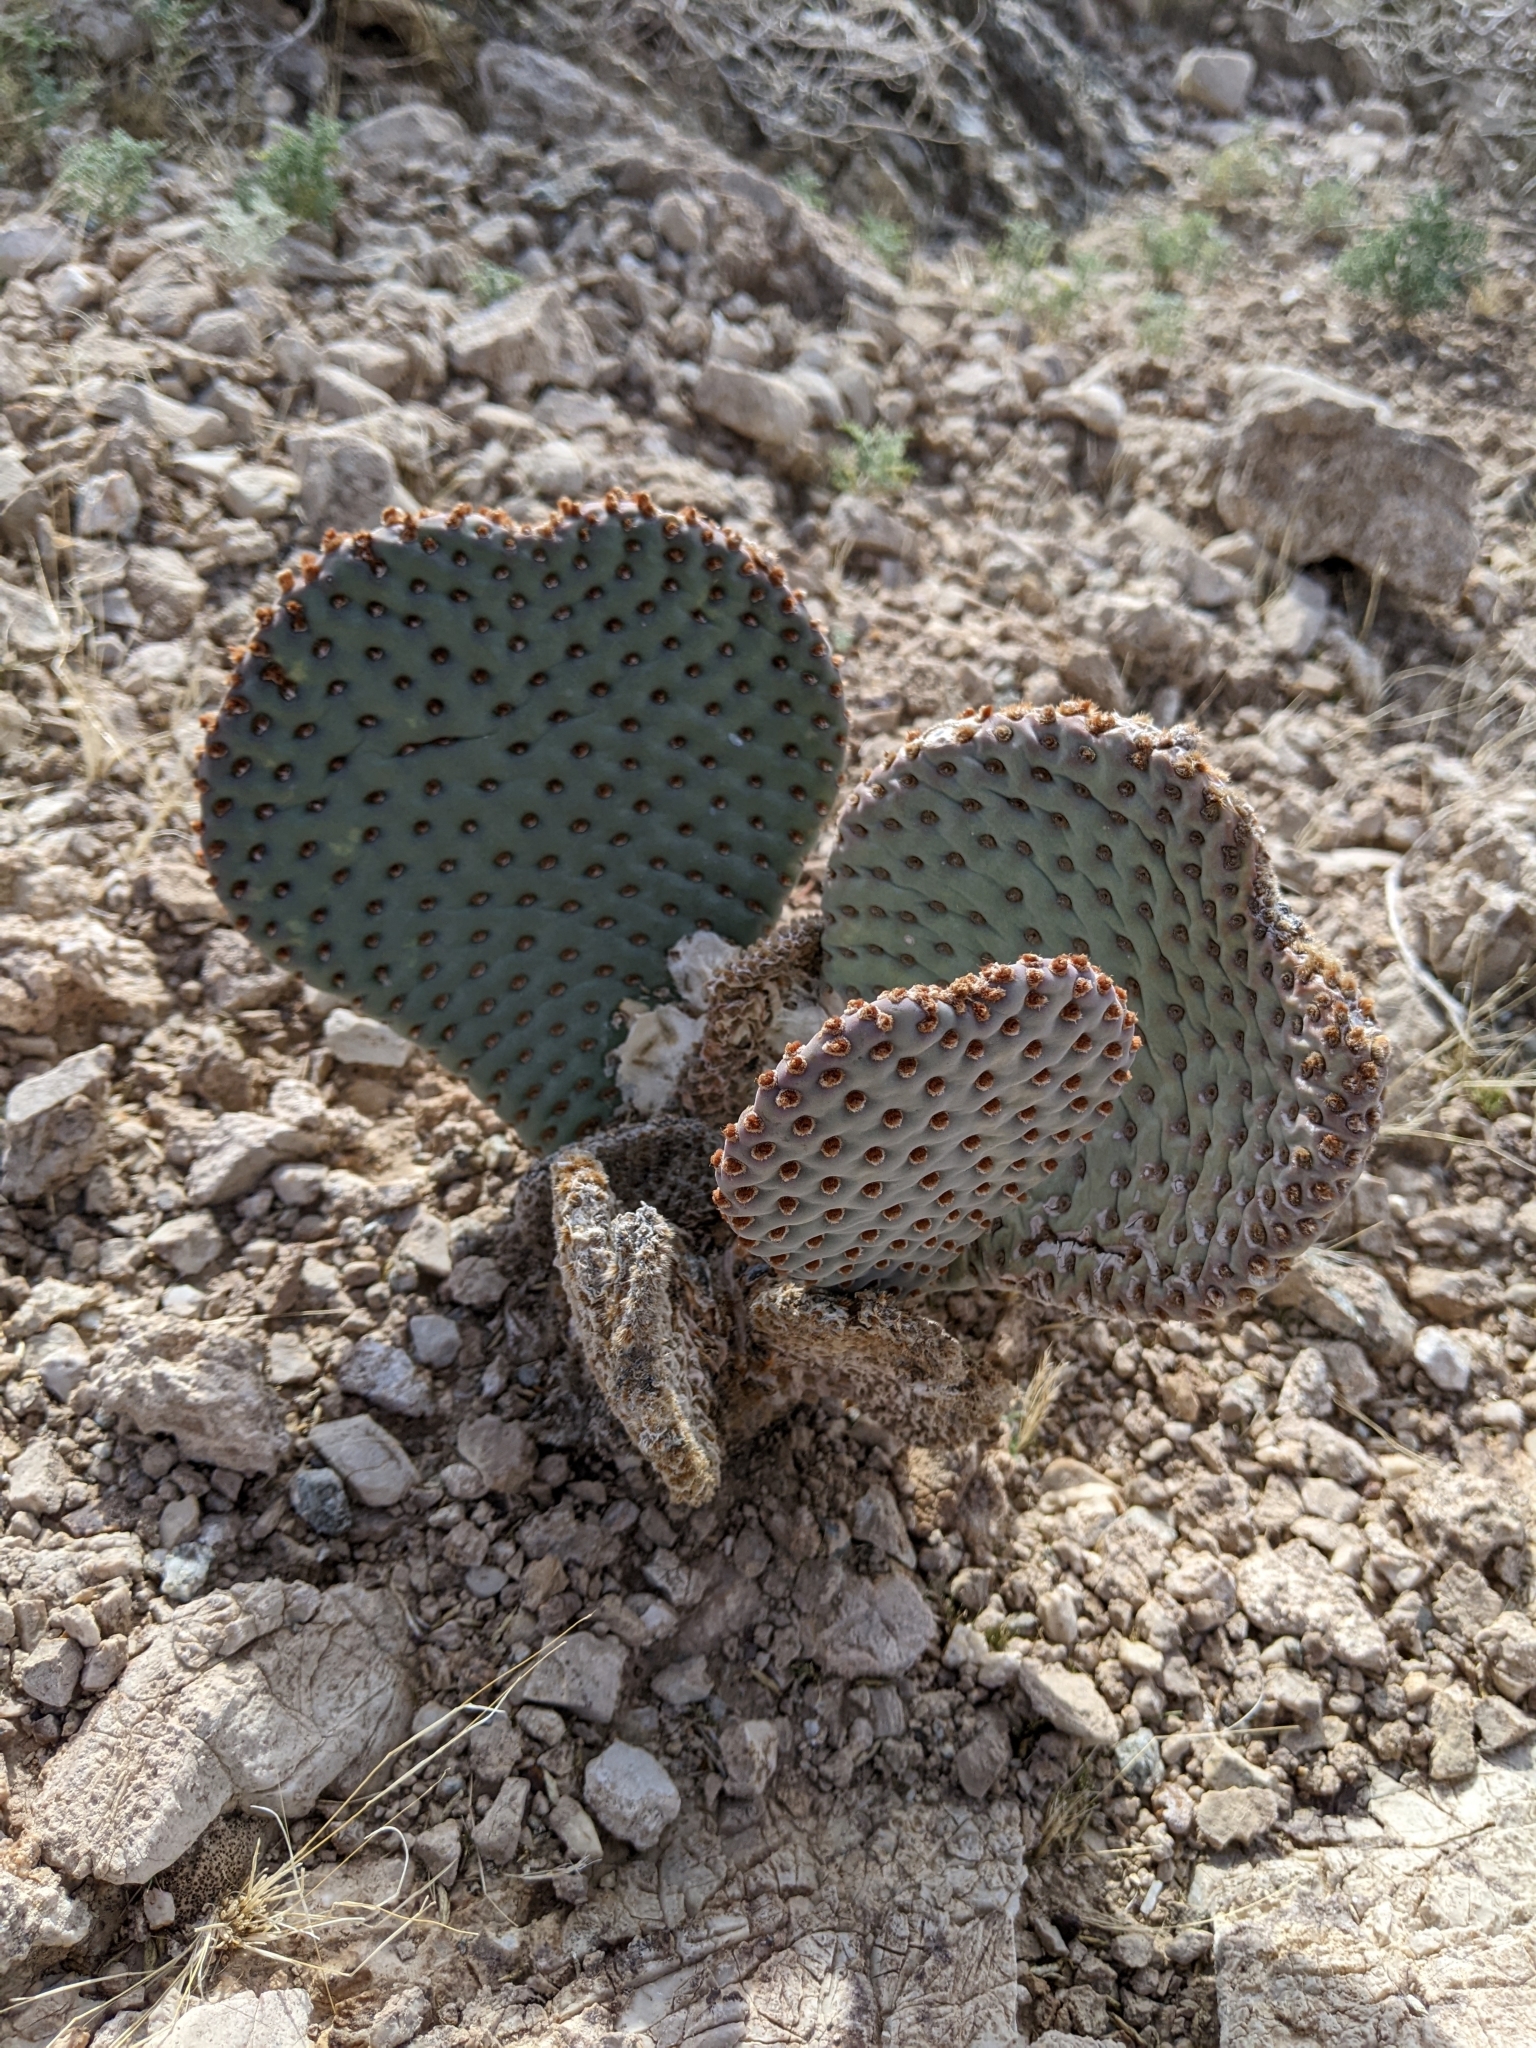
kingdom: Plantae
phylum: Tracheophyta
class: Magnoliopsida
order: Caryophyllales
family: Cactaceae
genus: Opuntia
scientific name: Opuntia basilaris
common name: Beavertail prickly-pear
